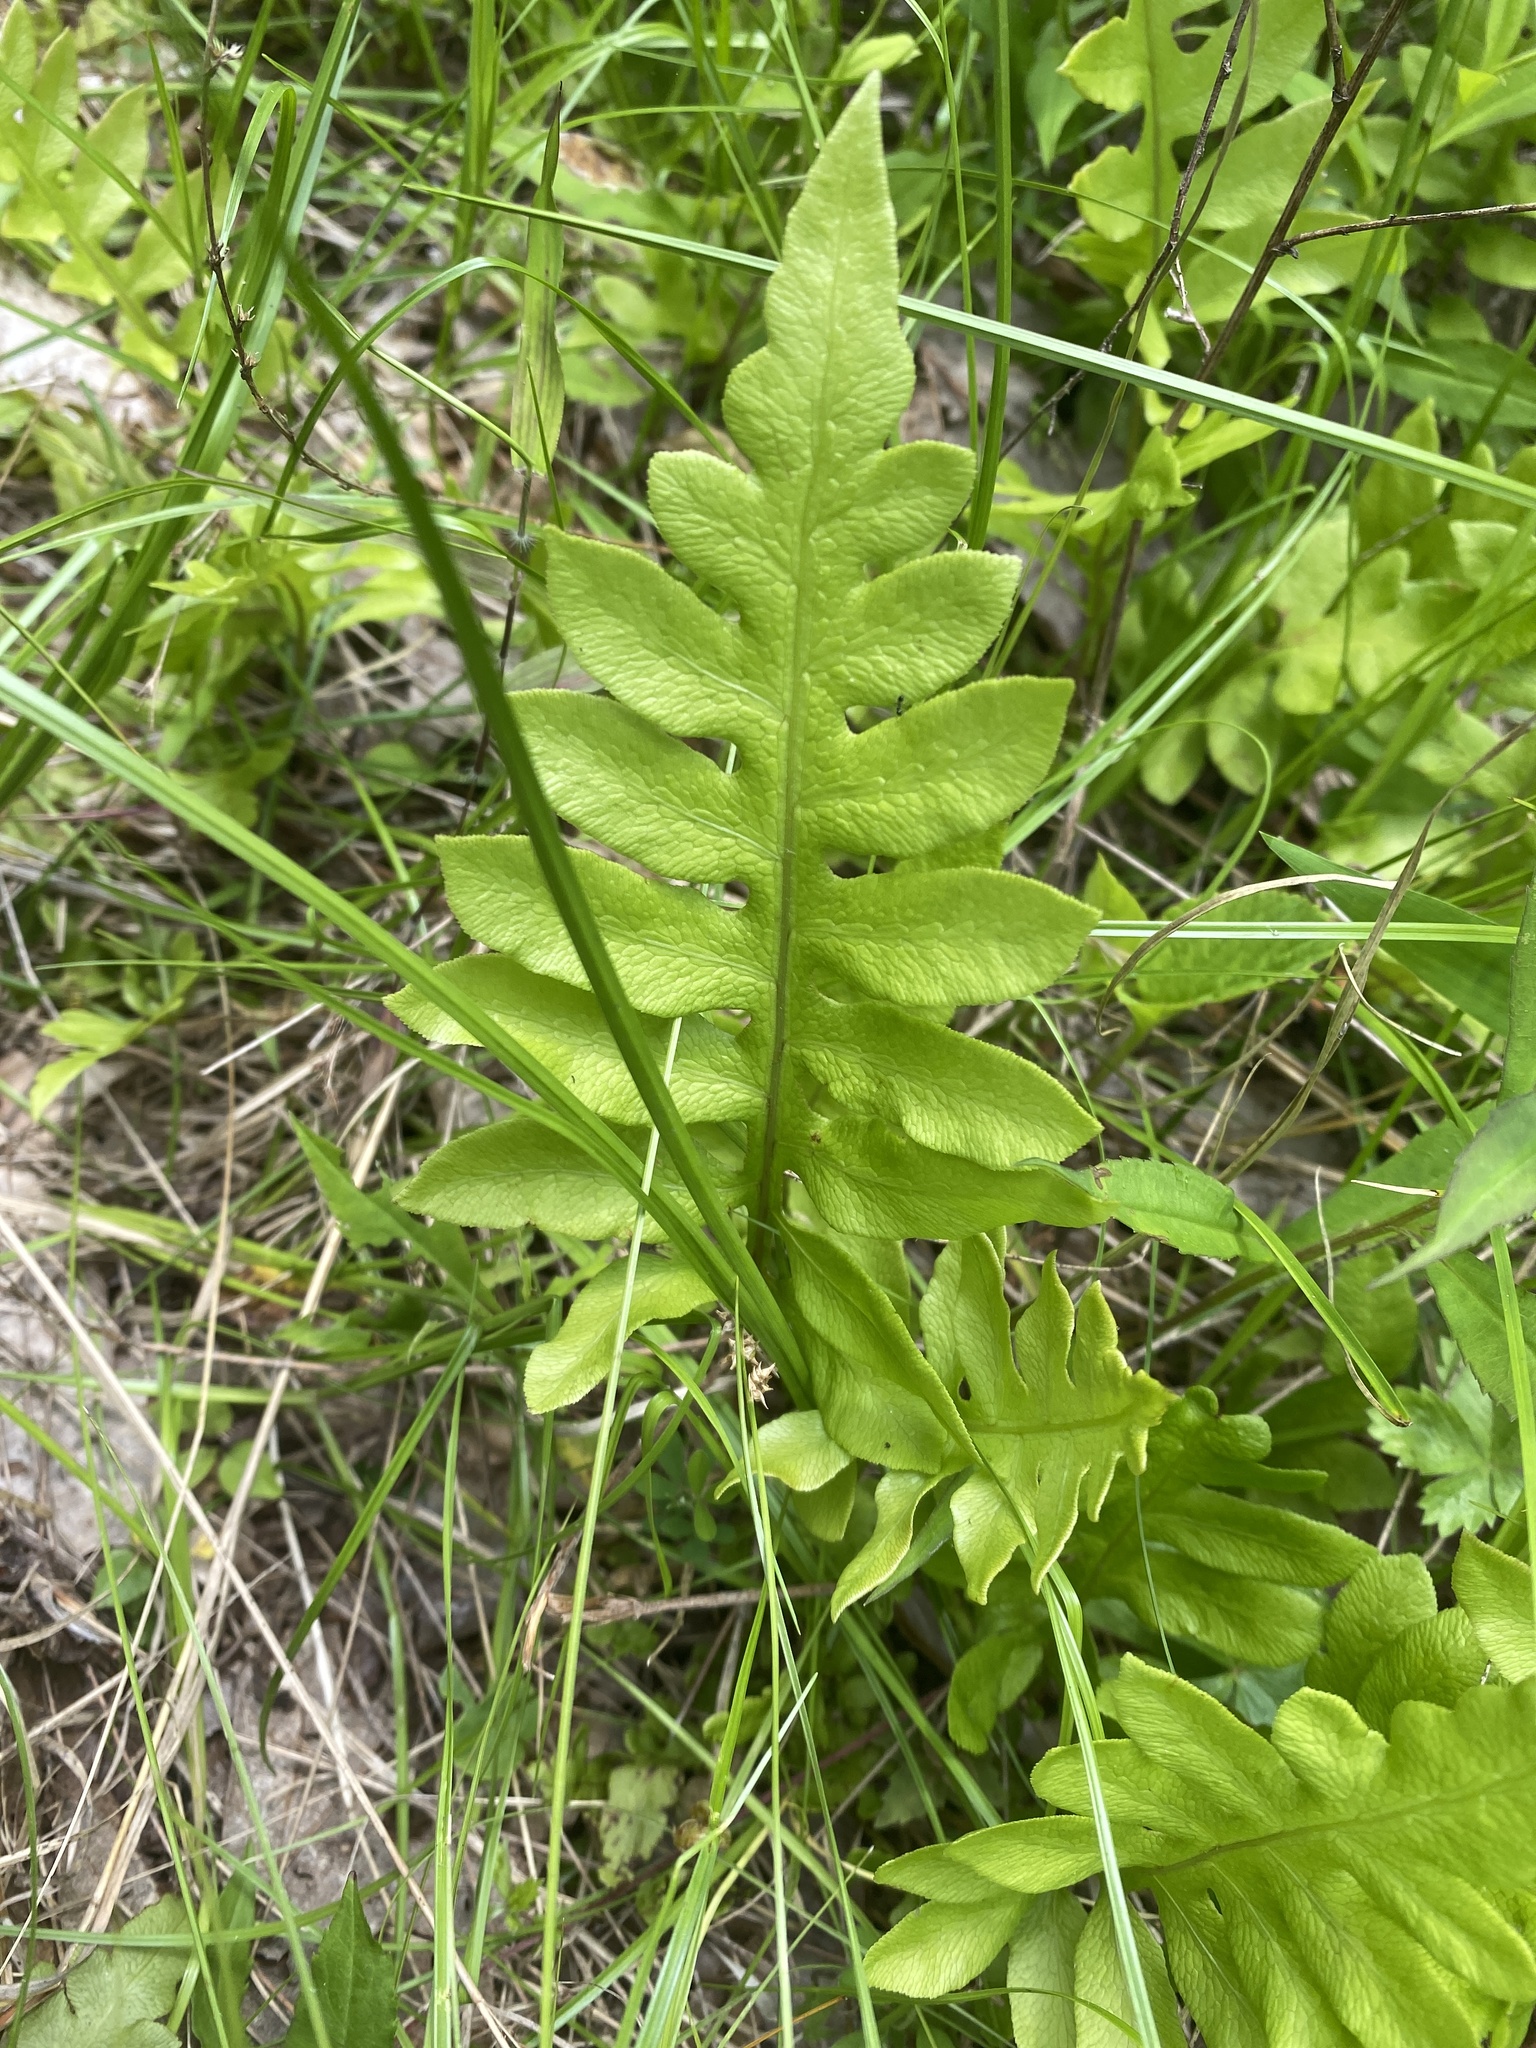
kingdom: Plantae
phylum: Tracheophyta
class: Polypodiopsida
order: Polypodiales
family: Blechnaceae
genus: Lorinseria
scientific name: Lorinseria areolata
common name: Dwarf chain fern
